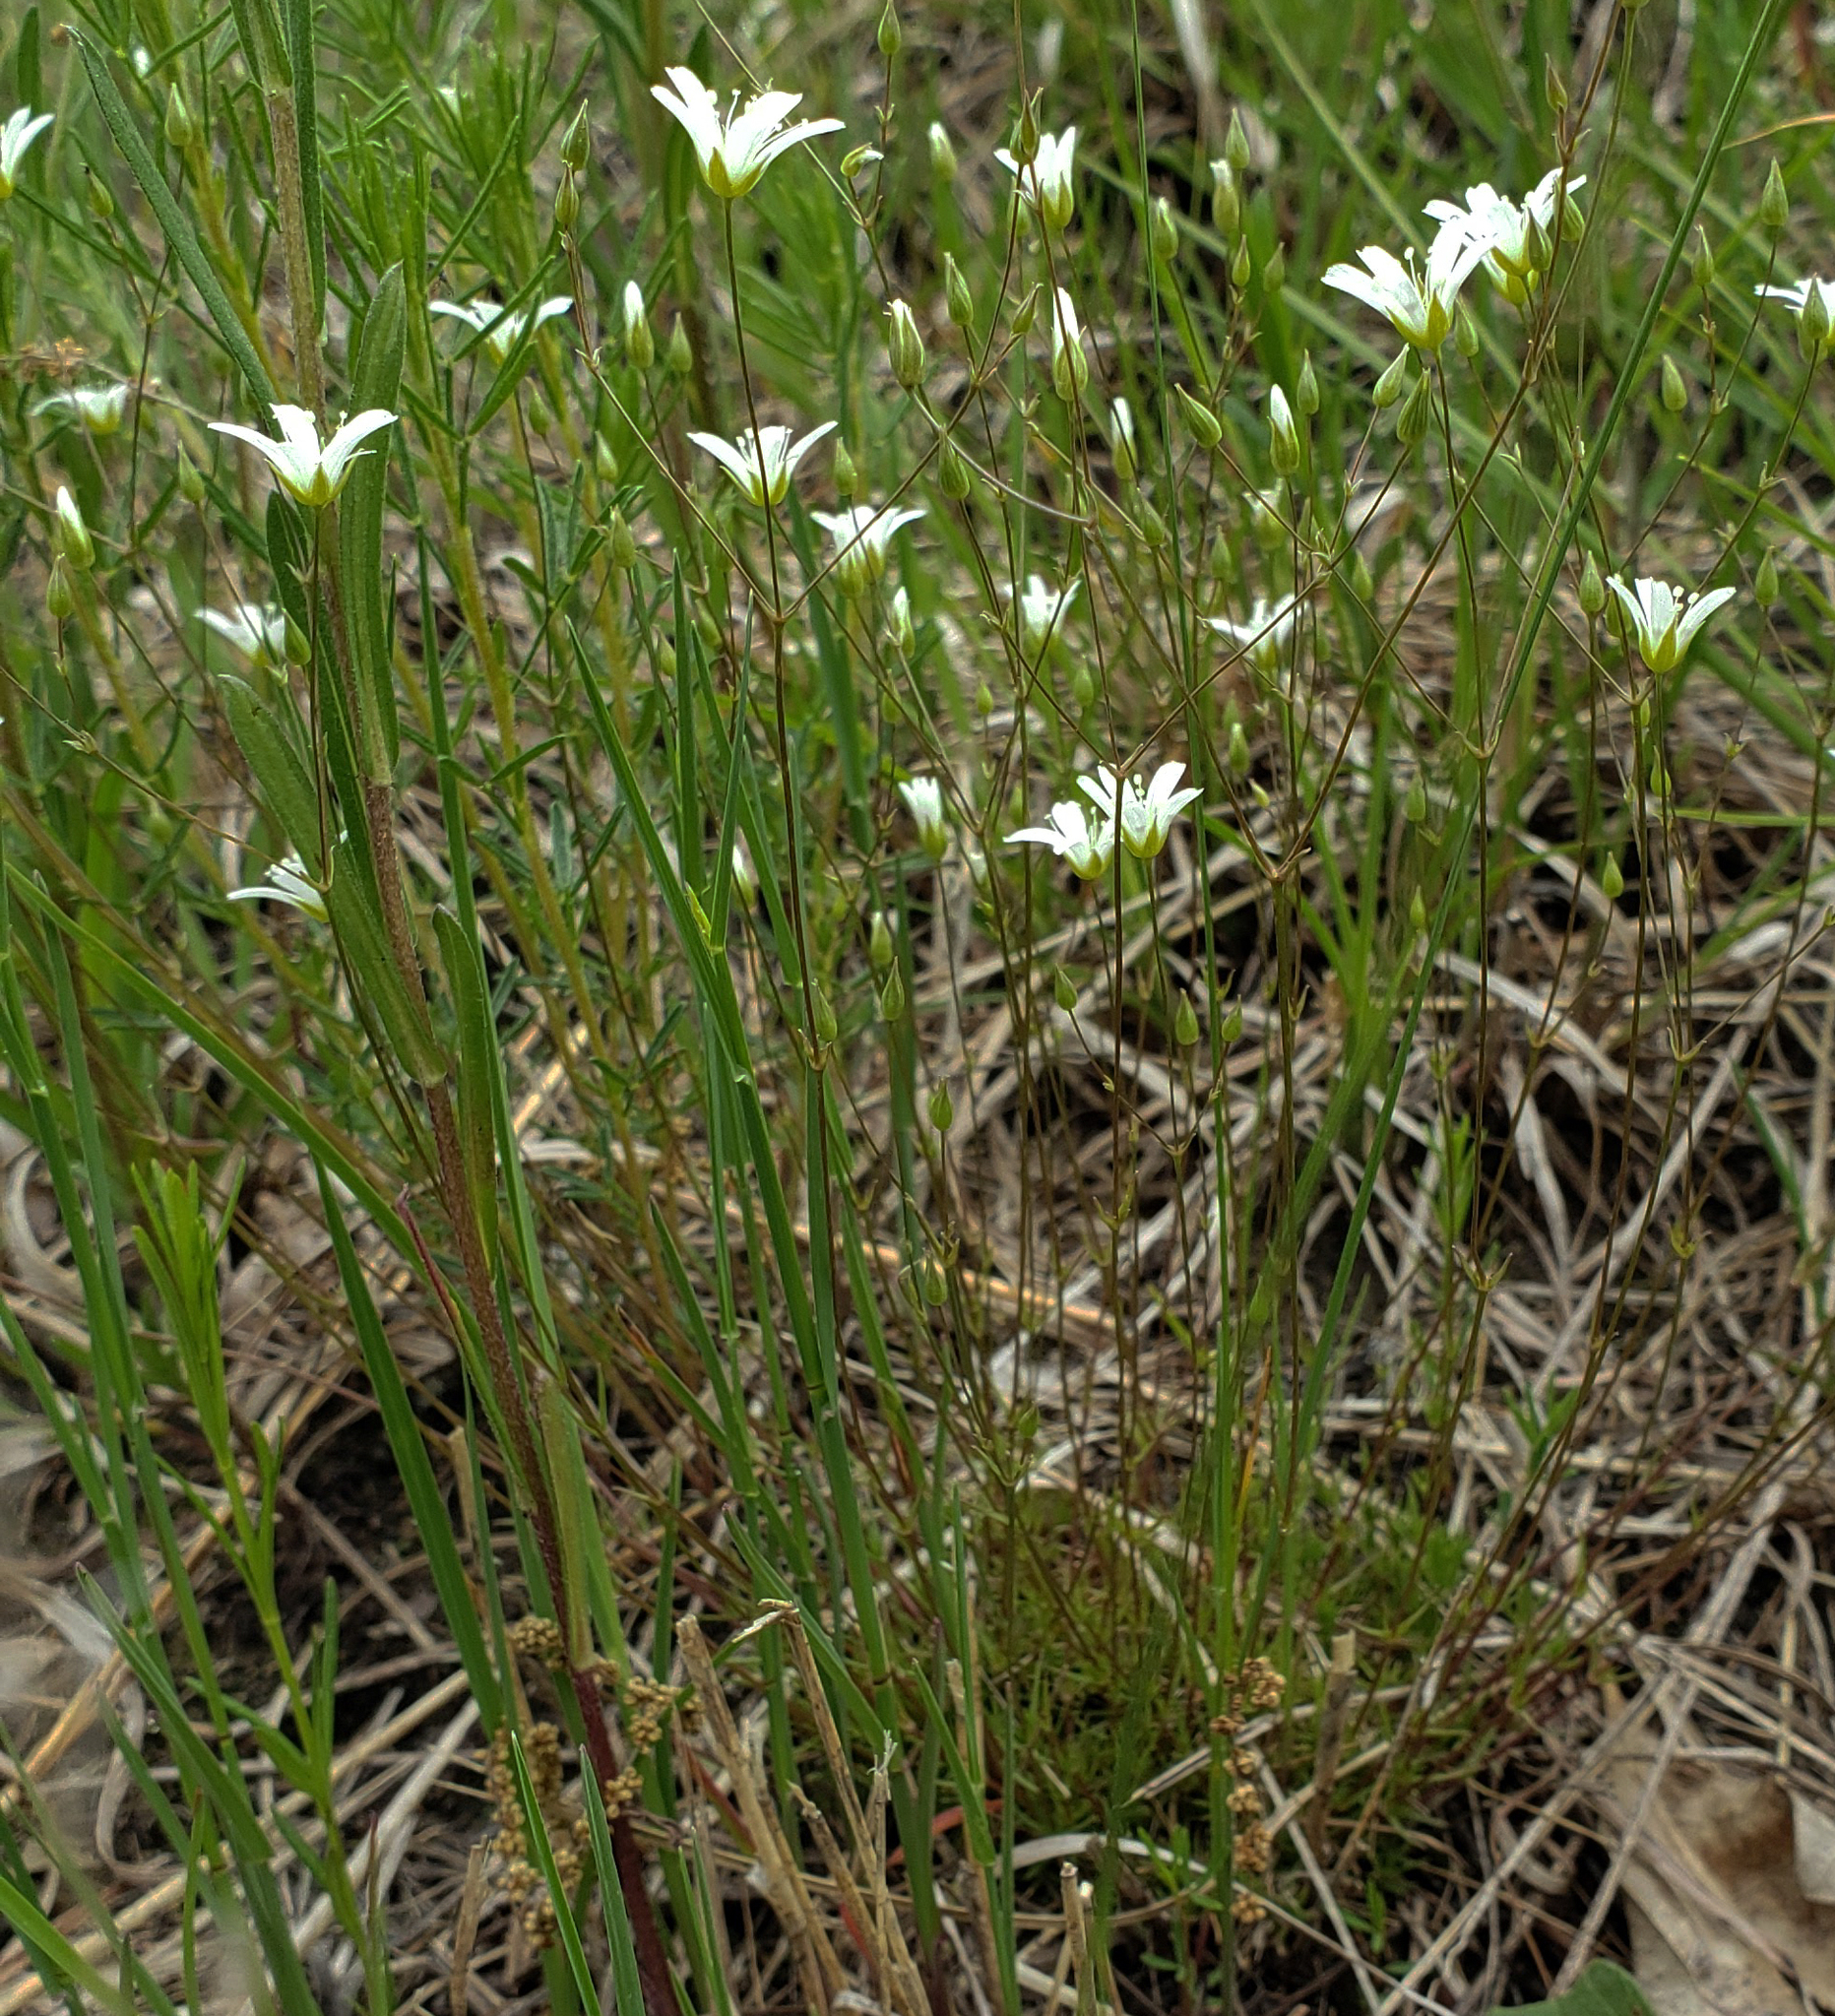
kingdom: Plantae
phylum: Tracheophyta
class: Magnoliopsida
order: Caryophyllales
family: Caryophyllaceae
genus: Sabulina
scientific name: Sabulina michauxii
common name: Michaux's stitchwort
